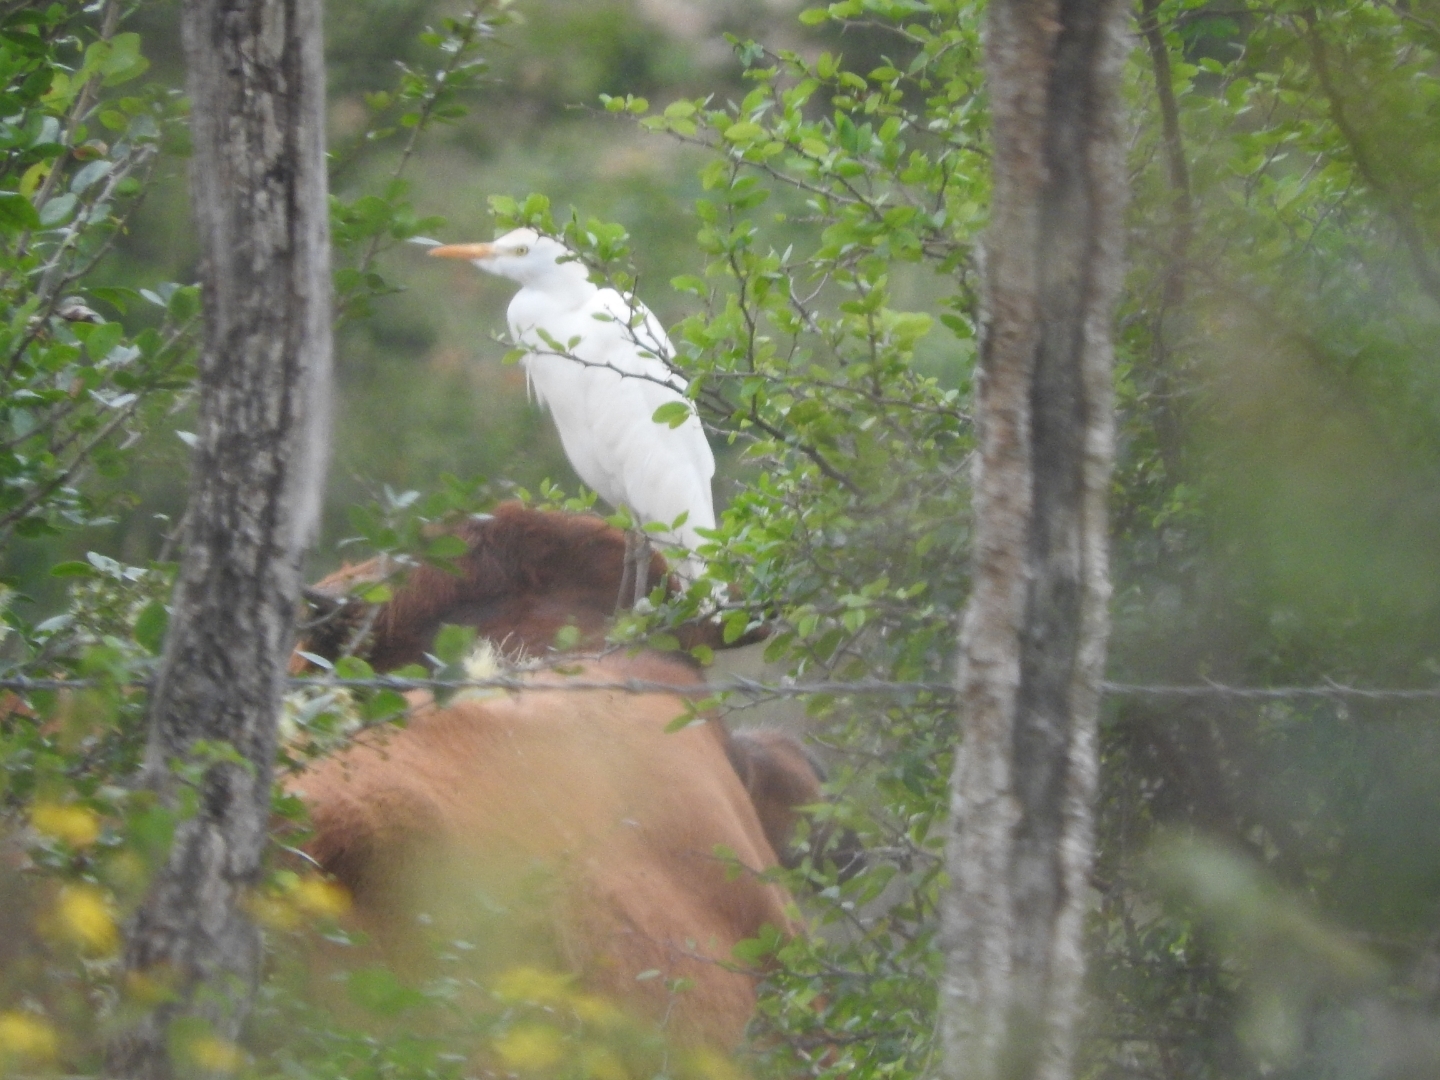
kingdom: Animalia
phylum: Chordata
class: Aves
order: Pelecaniformes
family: Ardeidae
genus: Bubulcus
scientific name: Bubulcus ibis
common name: Cattle egret
